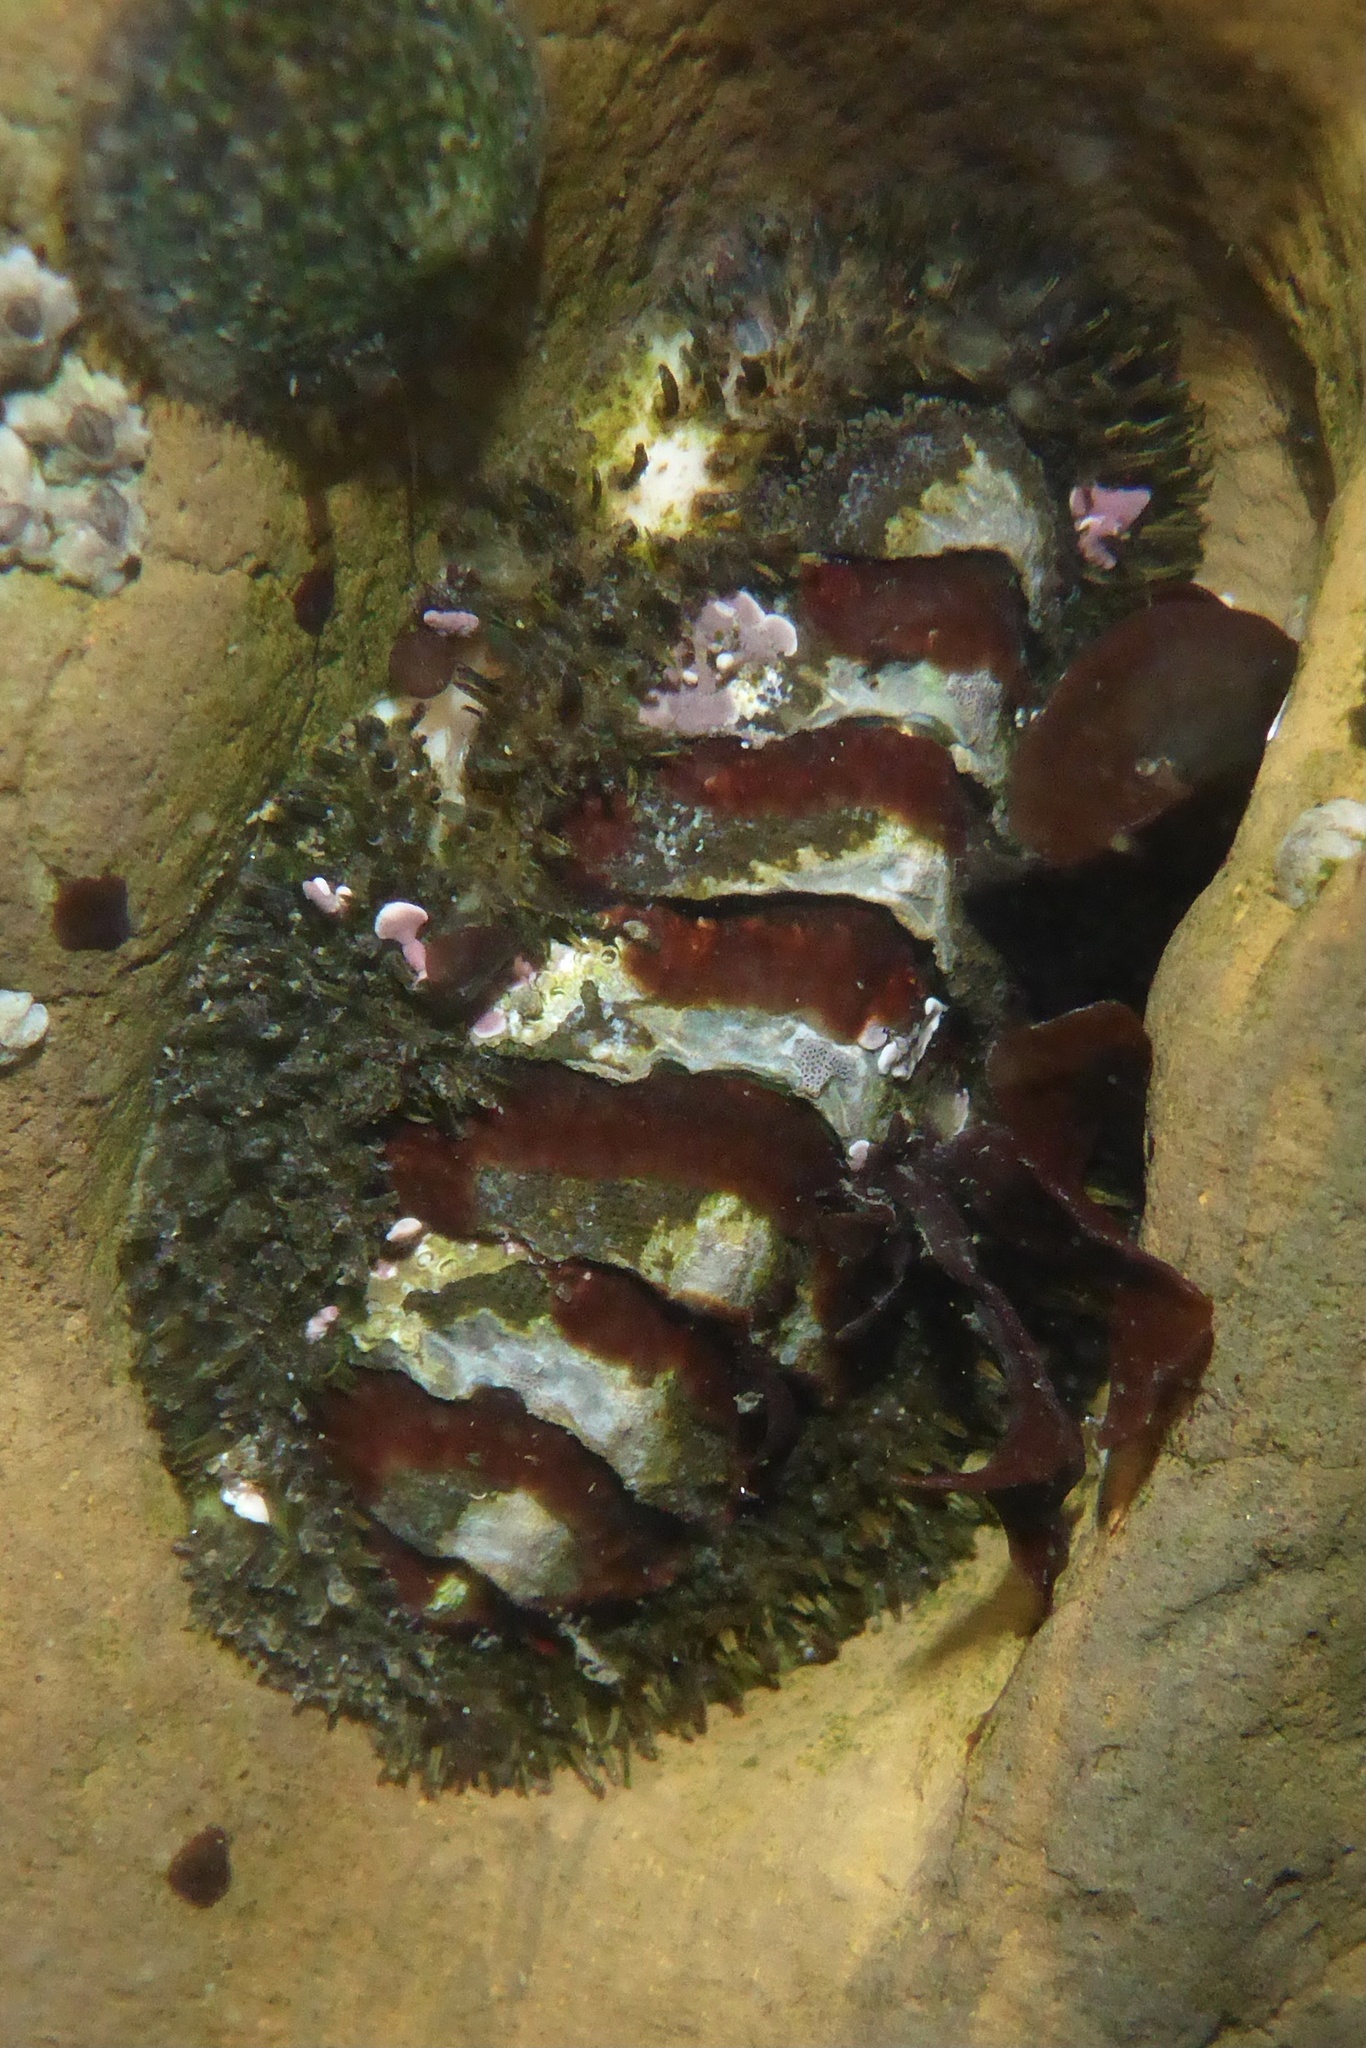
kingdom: Animalia
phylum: Mollusca
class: Polyplacophora
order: Chitonida
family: Mopaliidae
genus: Mopalia
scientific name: Mopalia muscosa
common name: Mossy chiton
